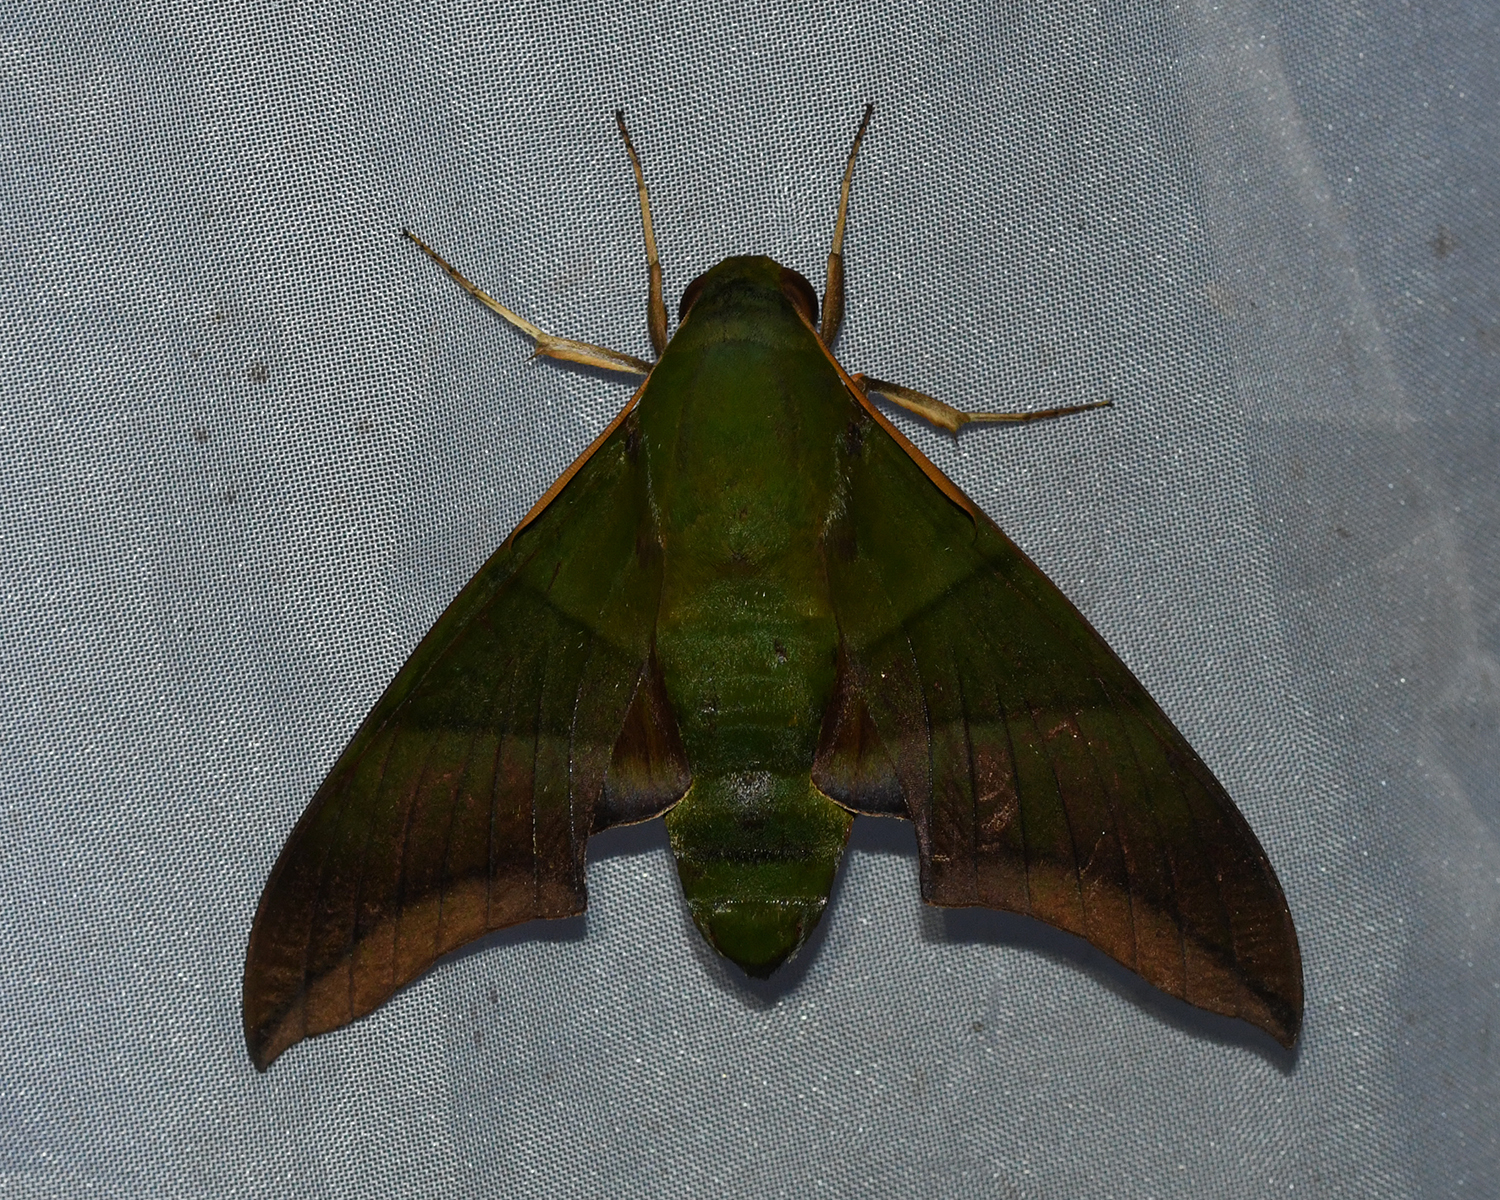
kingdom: Animalia
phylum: Arthropoda
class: Insecta
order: Lepidoptera
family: Sphingidae
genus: Oryba
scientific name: Oryba achemenides
